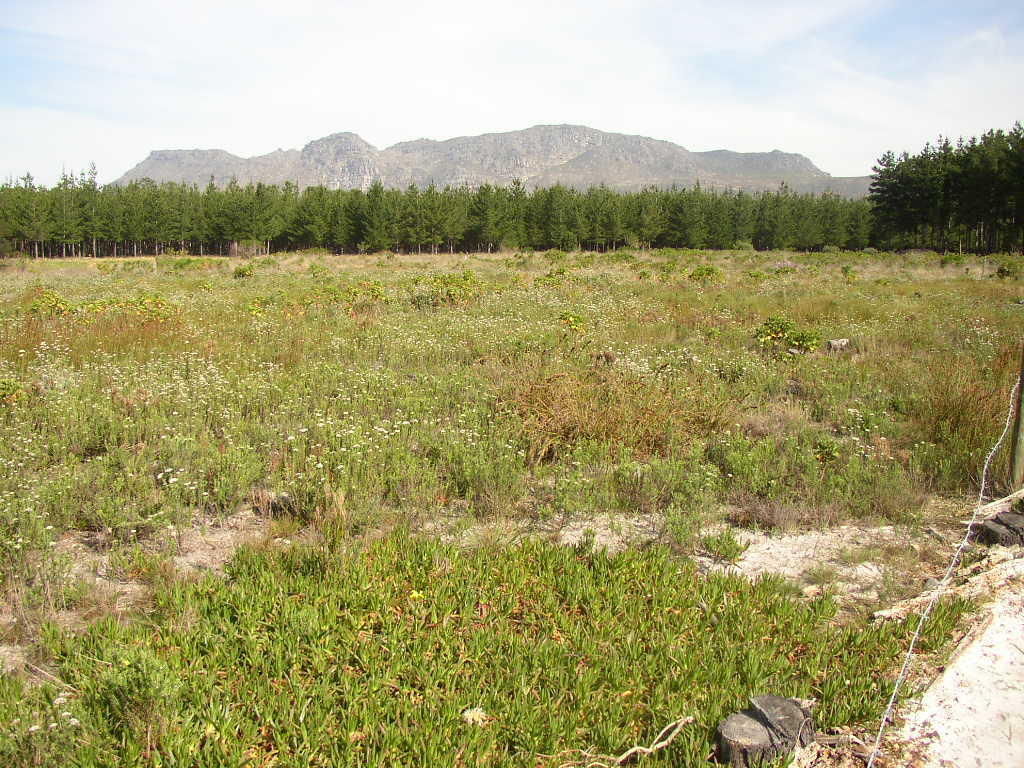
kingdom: Plantae
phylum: Tracheophyta
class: Magnoliopsida
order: Caryophyllales
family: Aizoaceae
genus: Carpobrotus
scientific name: Carpobrotus edulis
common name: Hottentot-fig
